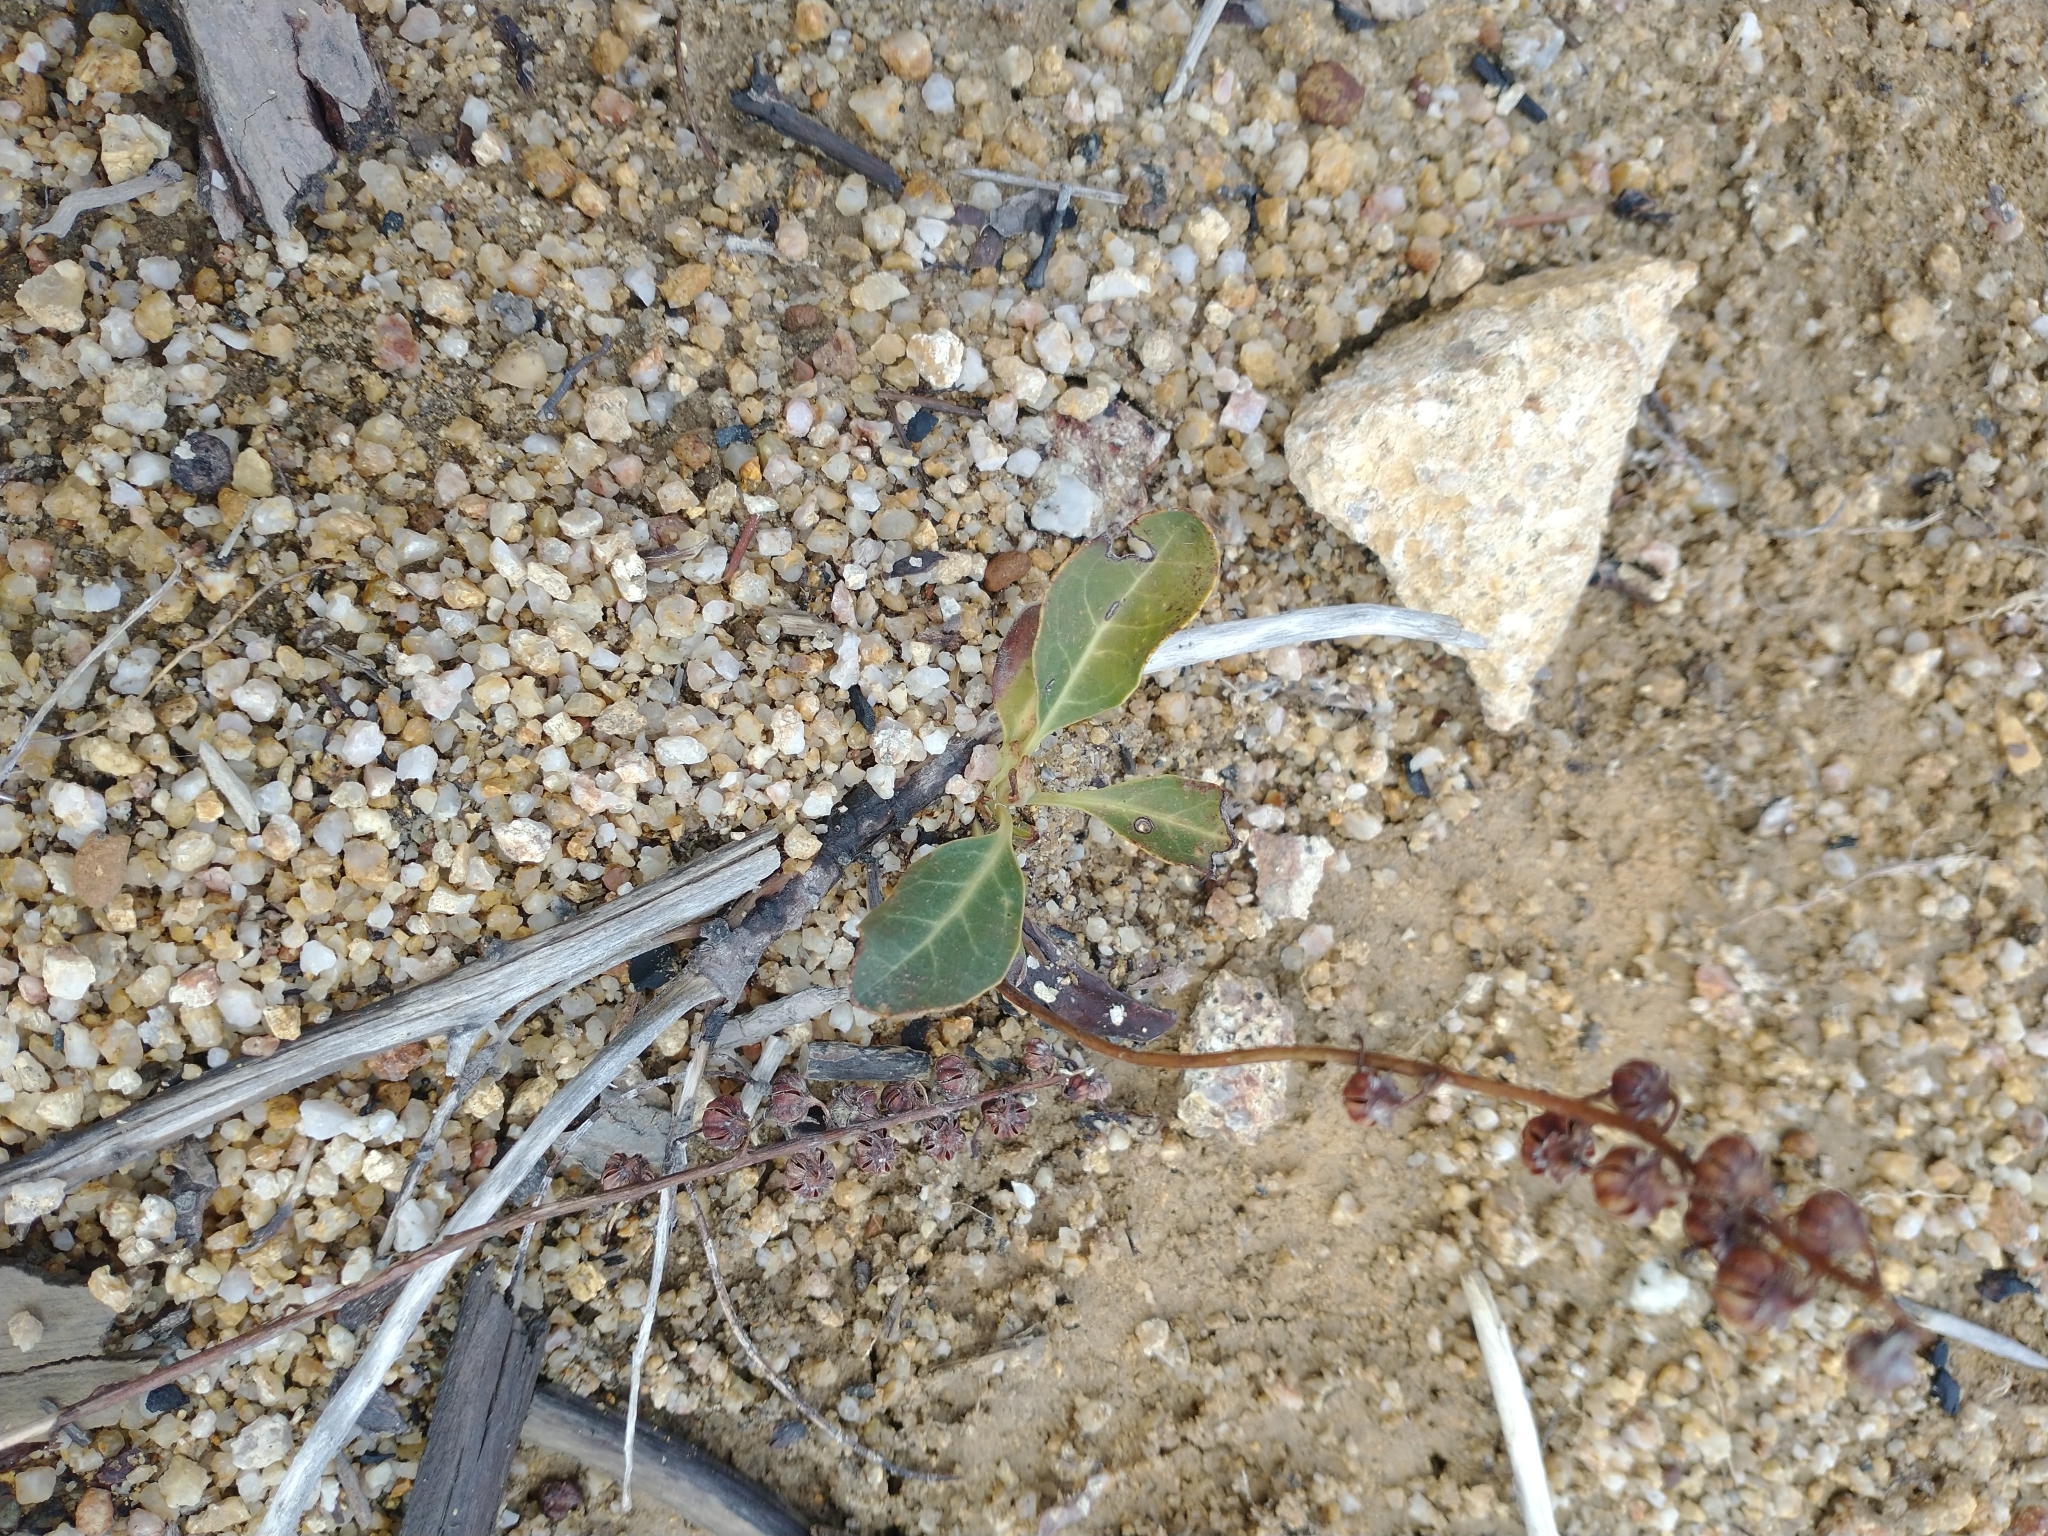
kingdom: Plantae
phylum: Tracheophyta
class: Magnoliopsida
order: Ericales
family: Ericaceae
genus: Pyrola
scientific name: Pyrola dentata
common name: Tooth-leaved wintergreen
